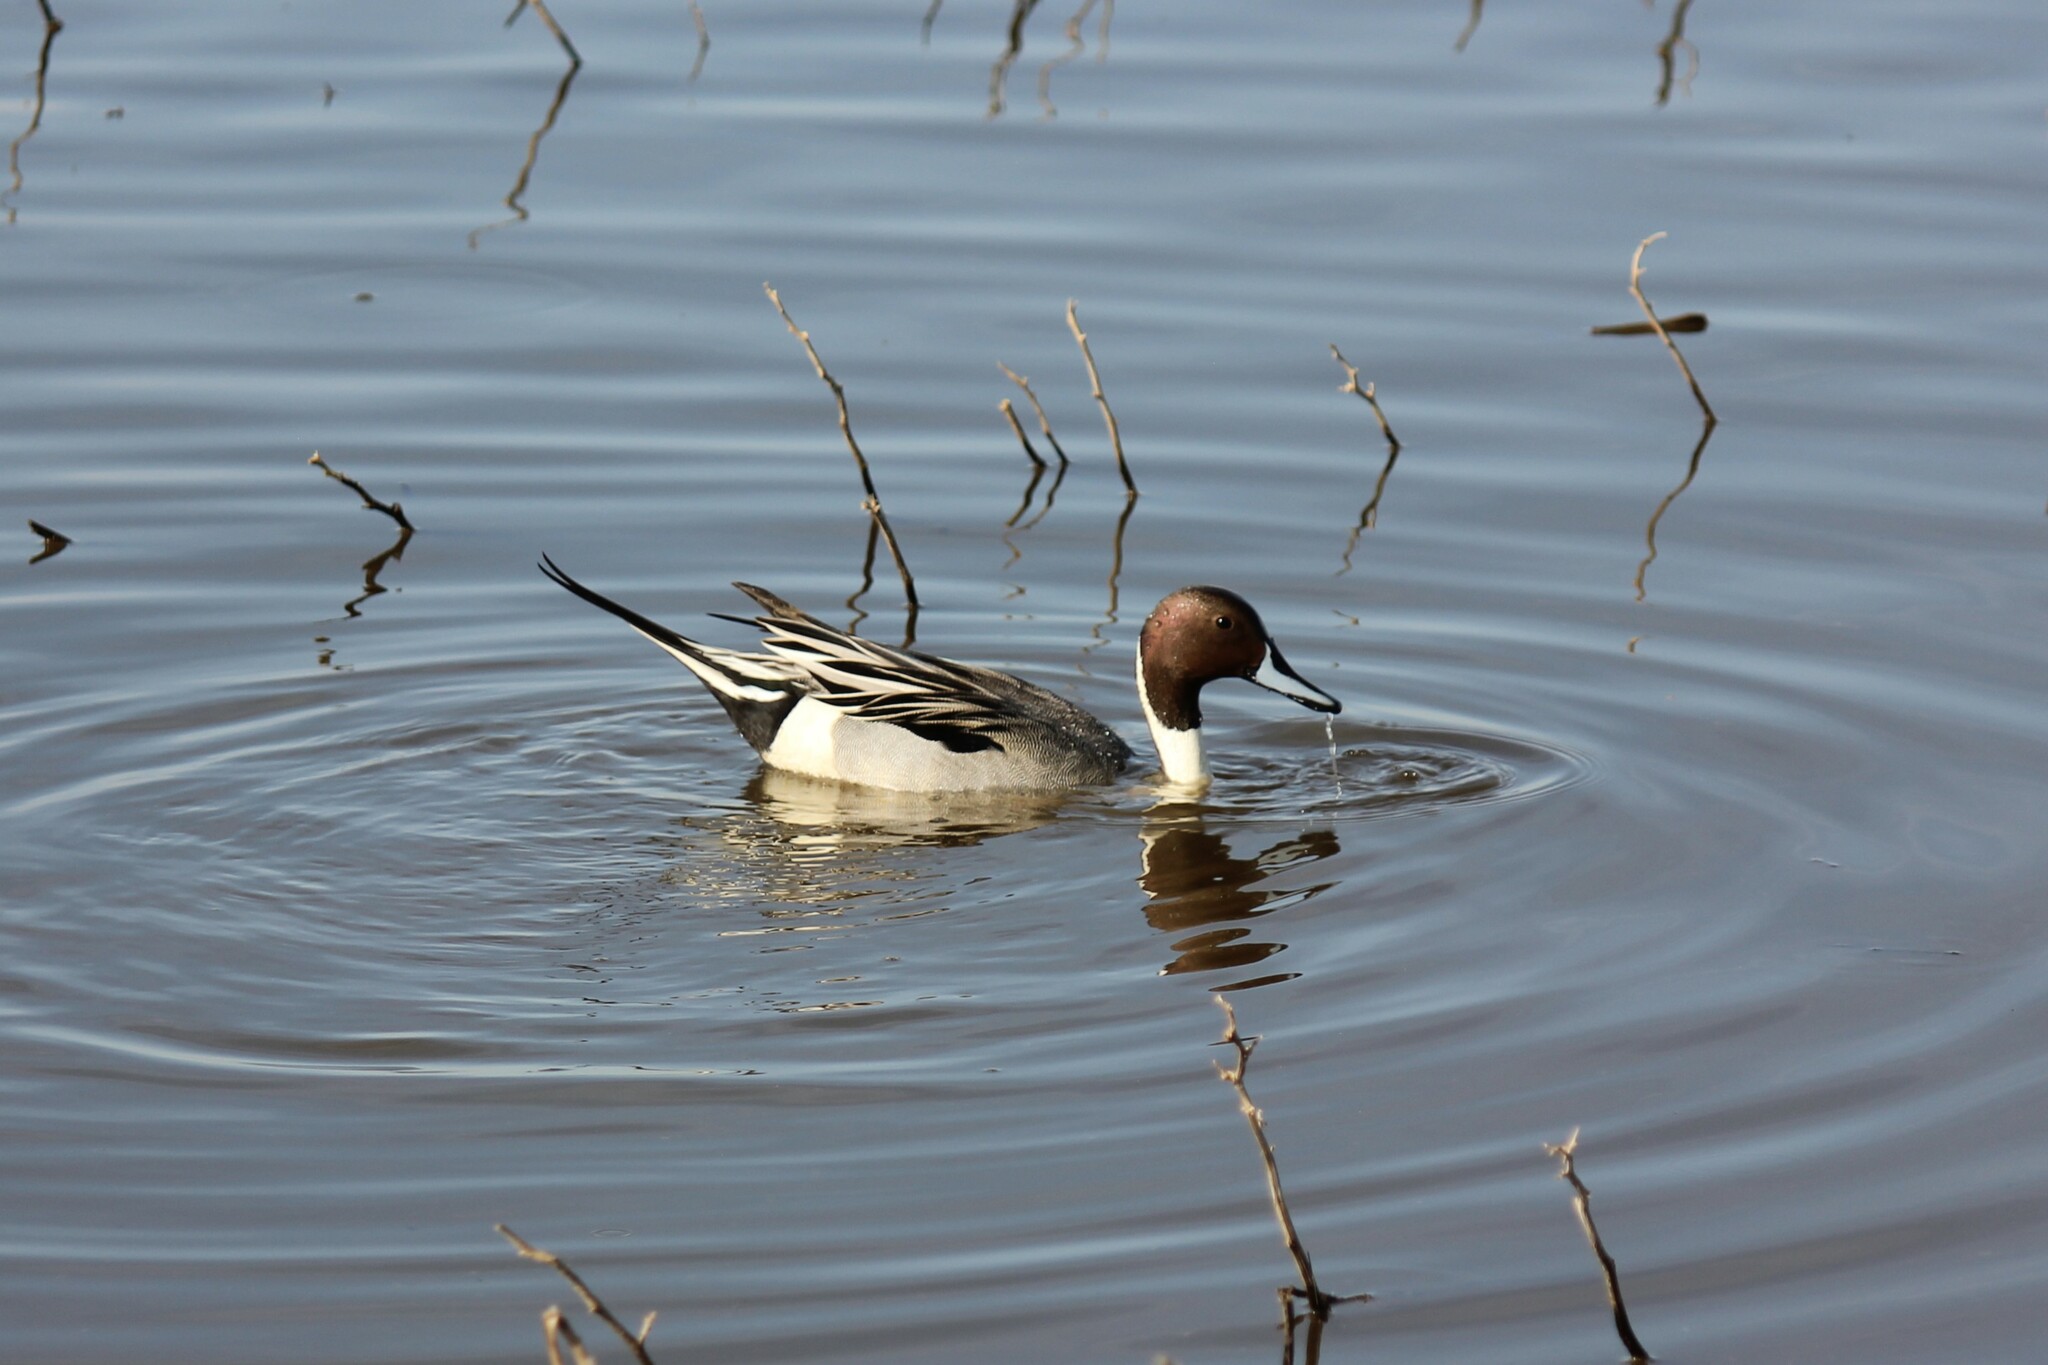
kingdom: Animalia
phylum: Chordata
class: Aves
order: Anseriformes
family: Anatidae
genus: Anas
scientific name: Anas acuta
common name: Northern pintail
